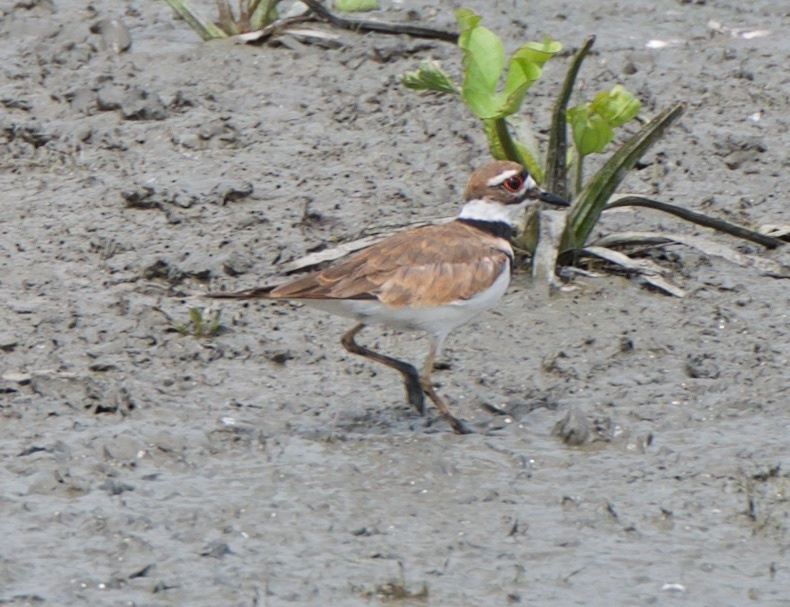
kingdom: Animalia
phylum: Chordata
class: Aves
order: Charadriiformes
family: Charadriidae
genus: Charadrius
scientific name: Charadrius vociferus
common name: Killdeer
